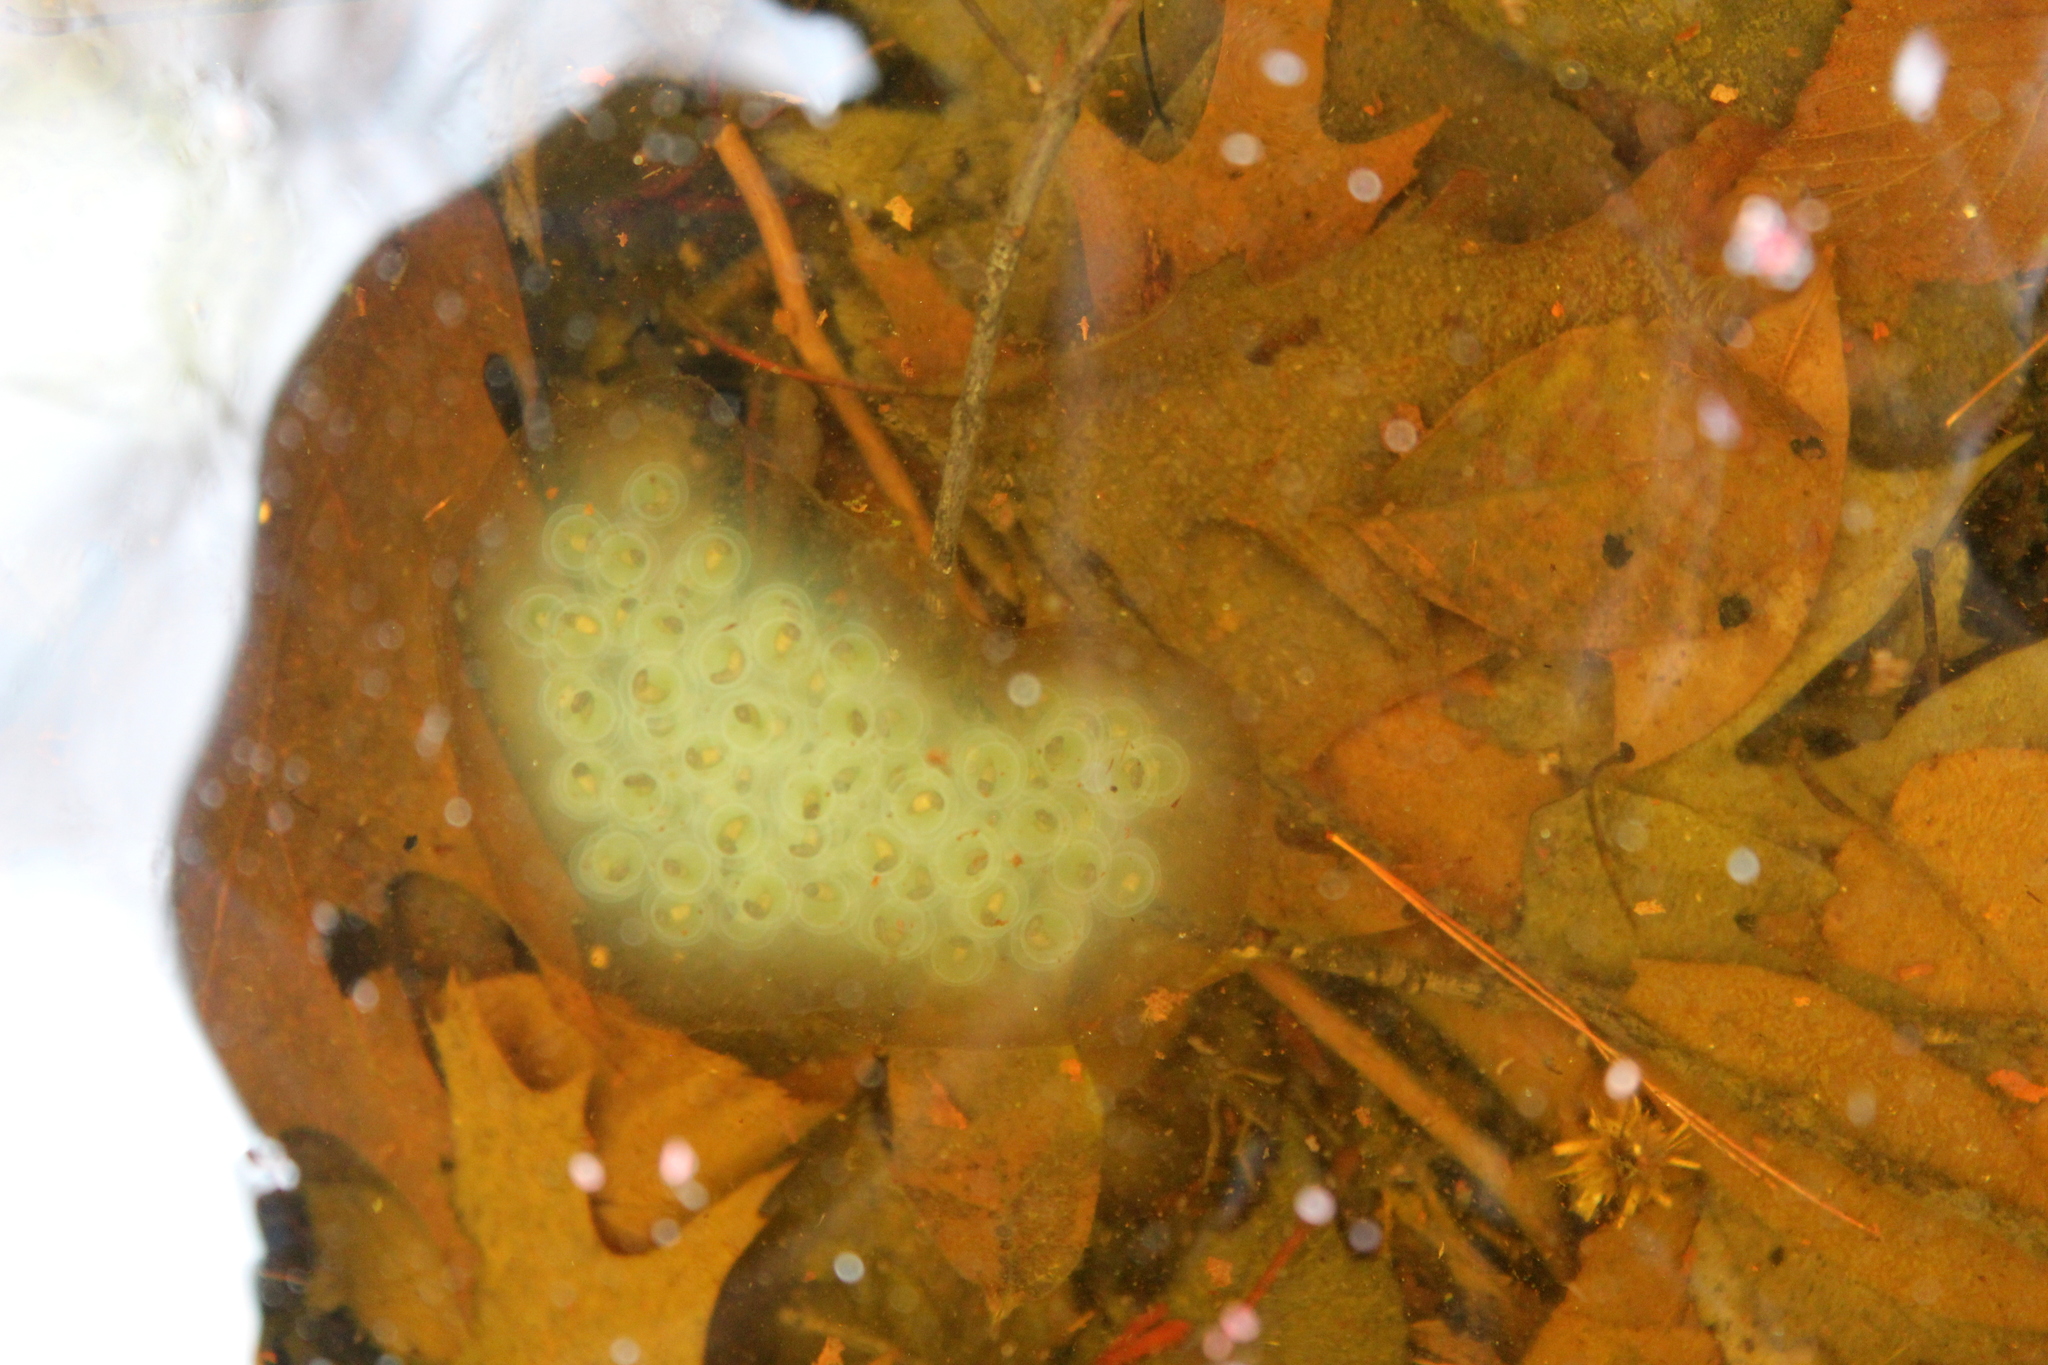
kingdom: Animalia
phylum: Chordata
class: Amphibia
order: Caudata
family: Ambystomatidae
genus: Ambystoma
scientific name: Ambystoma maculatum
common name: Spotted salamander
